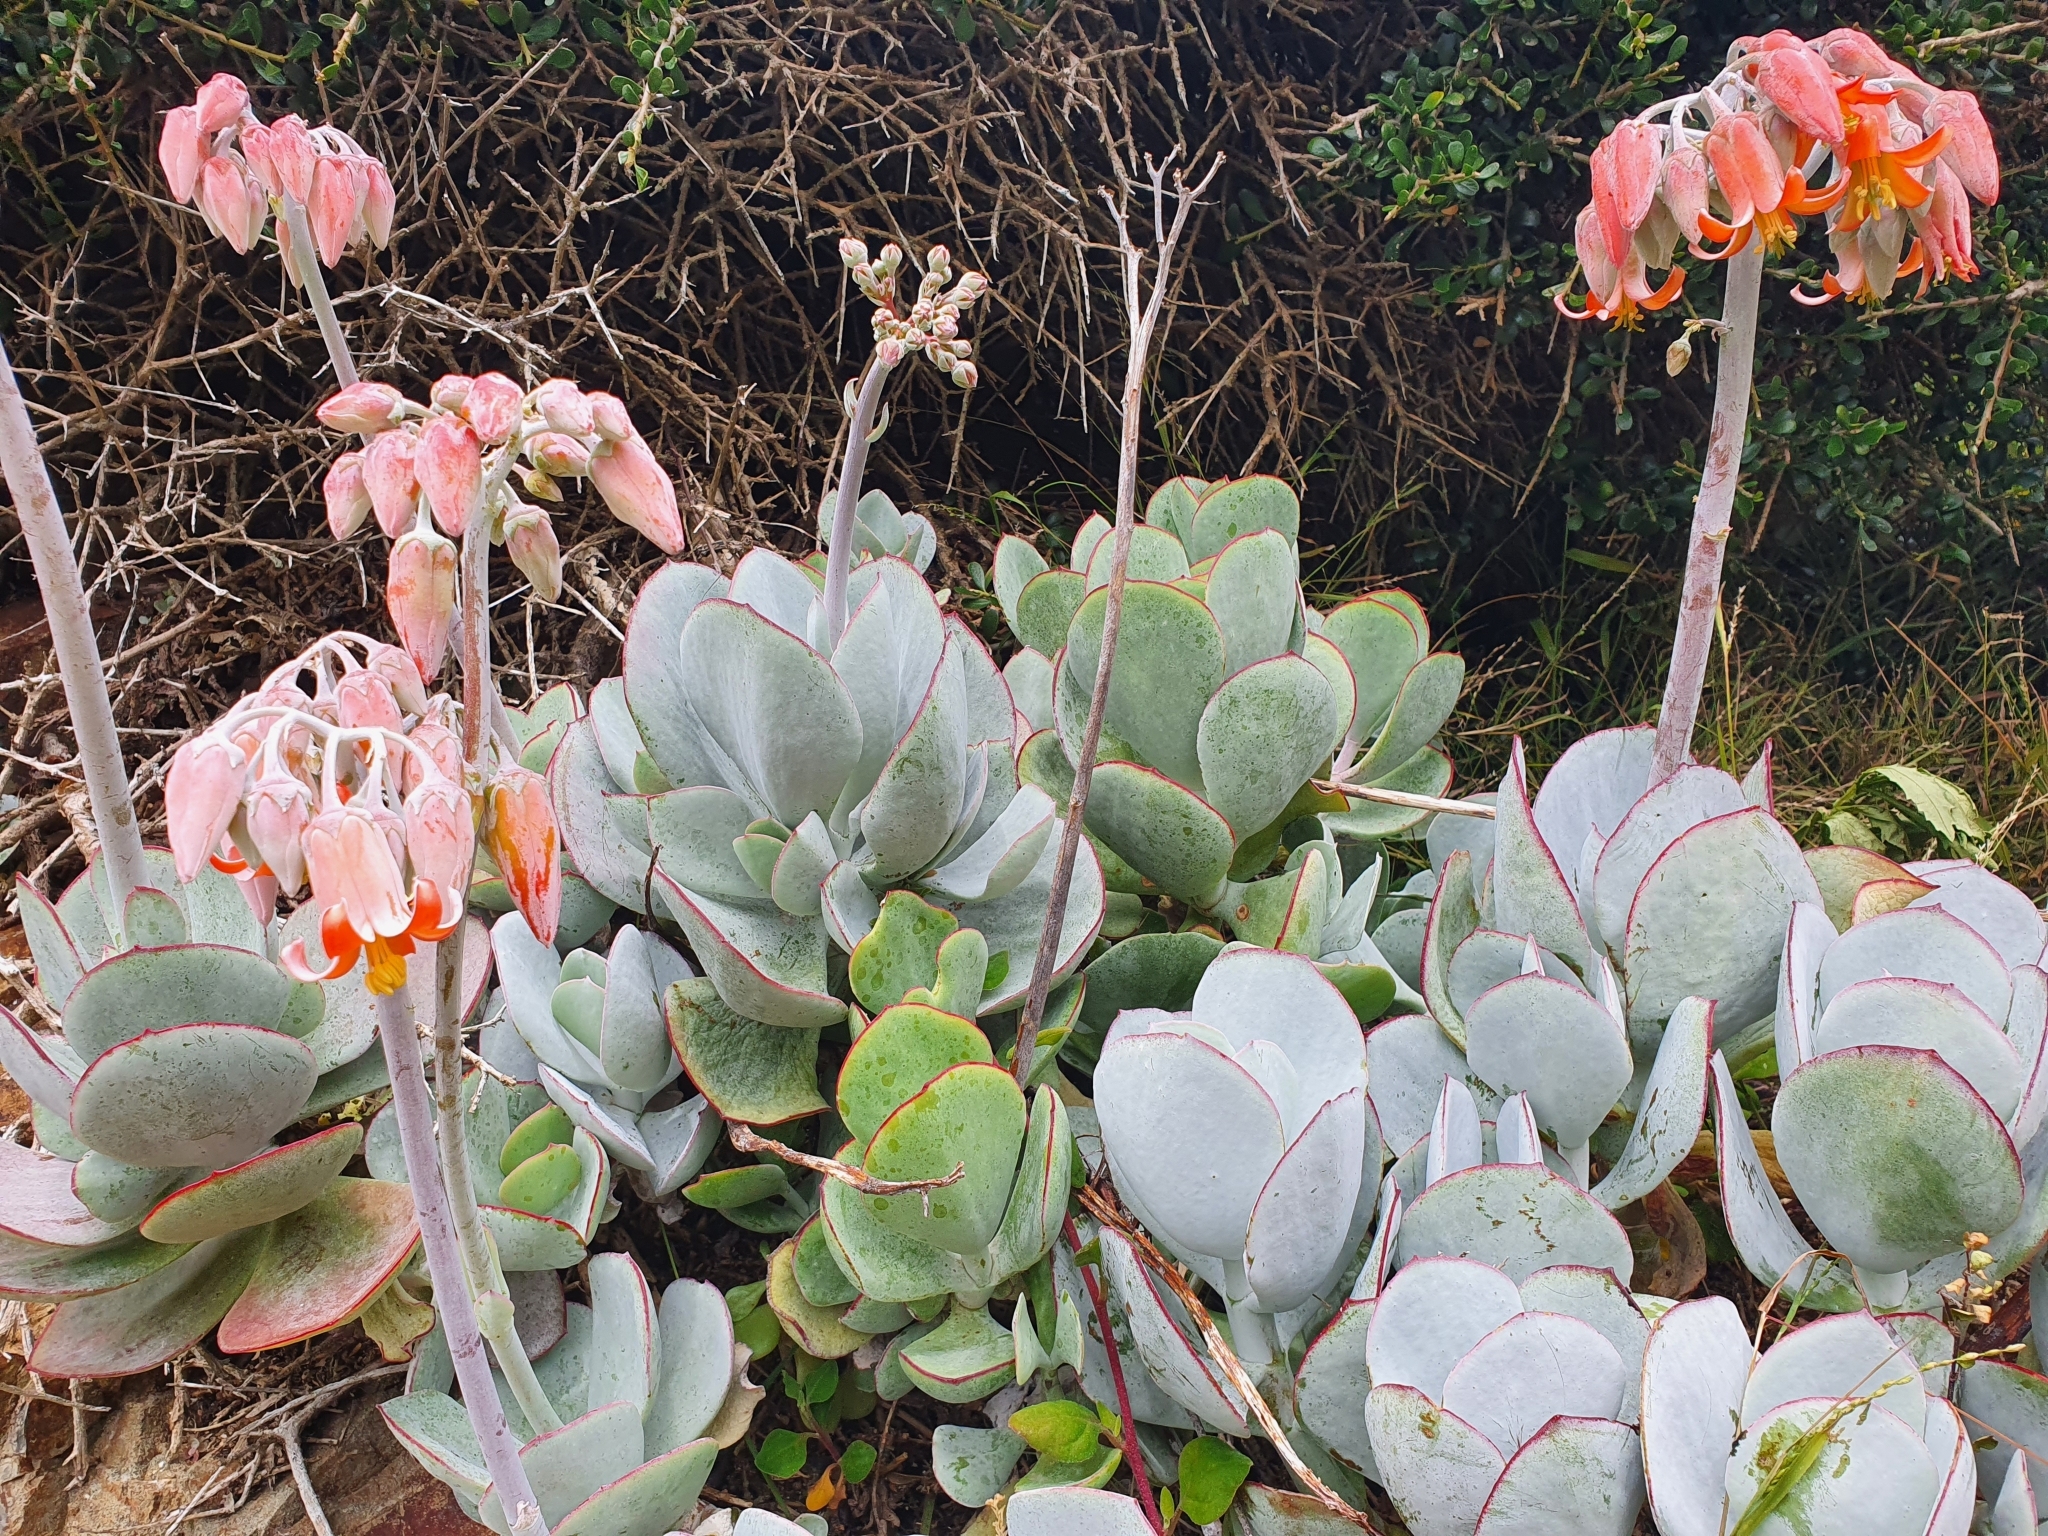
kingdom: Plantae
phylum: Tracheophyta
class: Magnoliopsida
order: Saxifragales
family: Crassulaceae
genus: Cotyledon
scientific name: Cotyledon orbiculata
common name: Pig's ear
